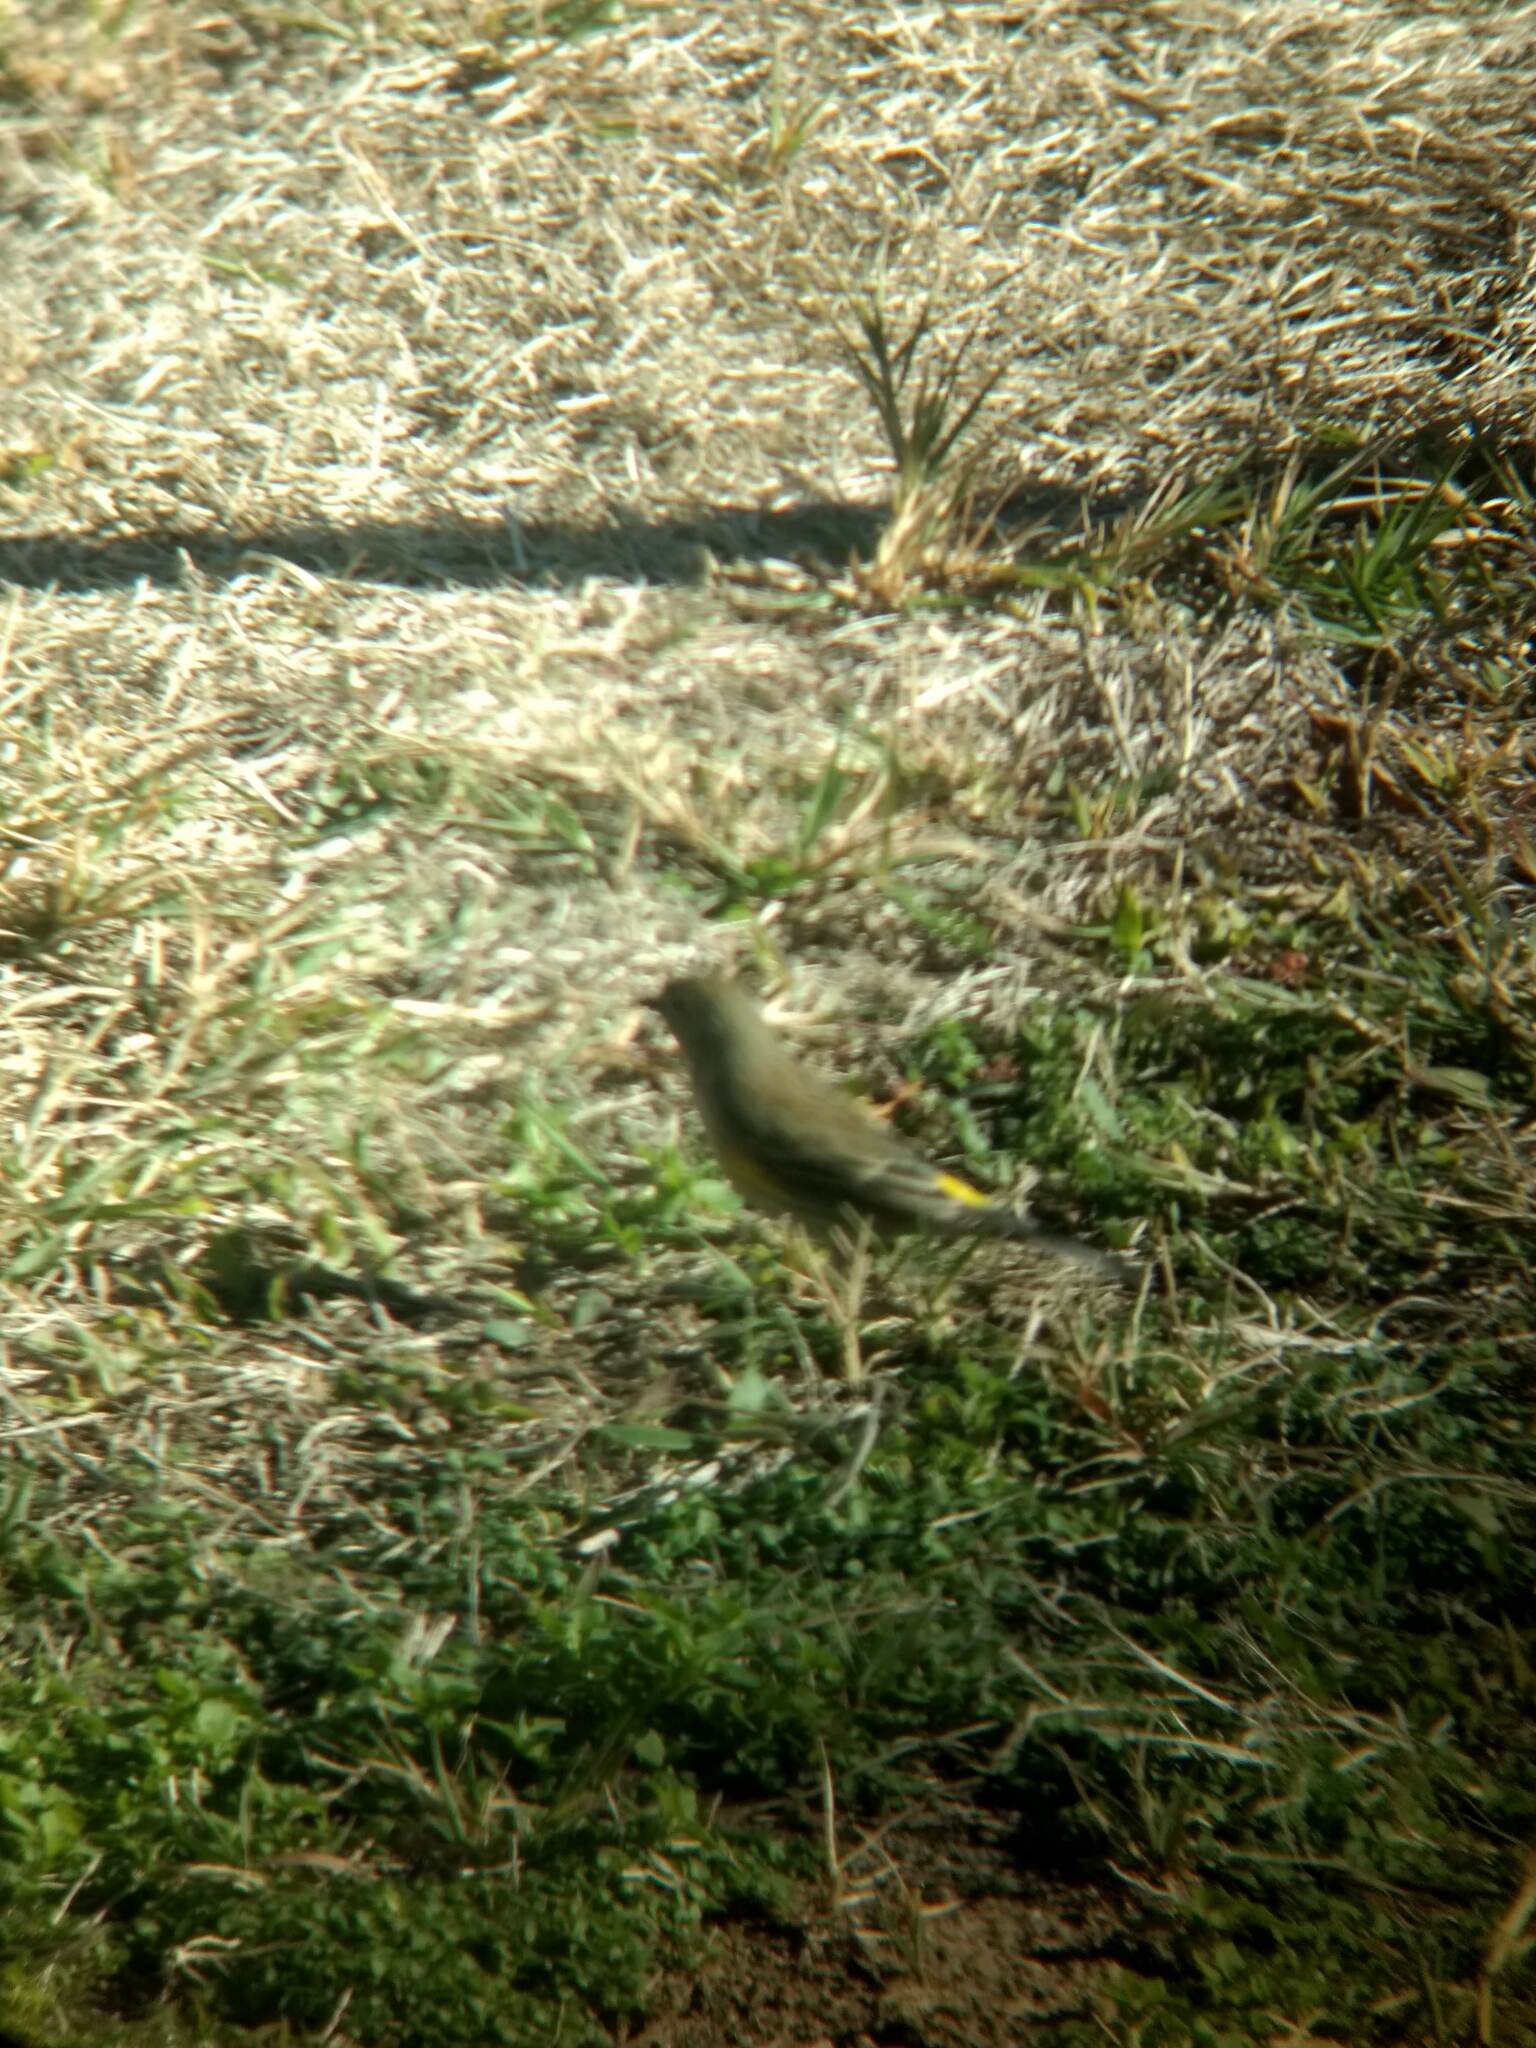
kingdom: Animalia
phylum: Chordata
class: Aves
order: Passeriformes
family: Parulidae
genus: Setophaga
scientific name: Setophaga coronata
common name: Myrtle warbler
